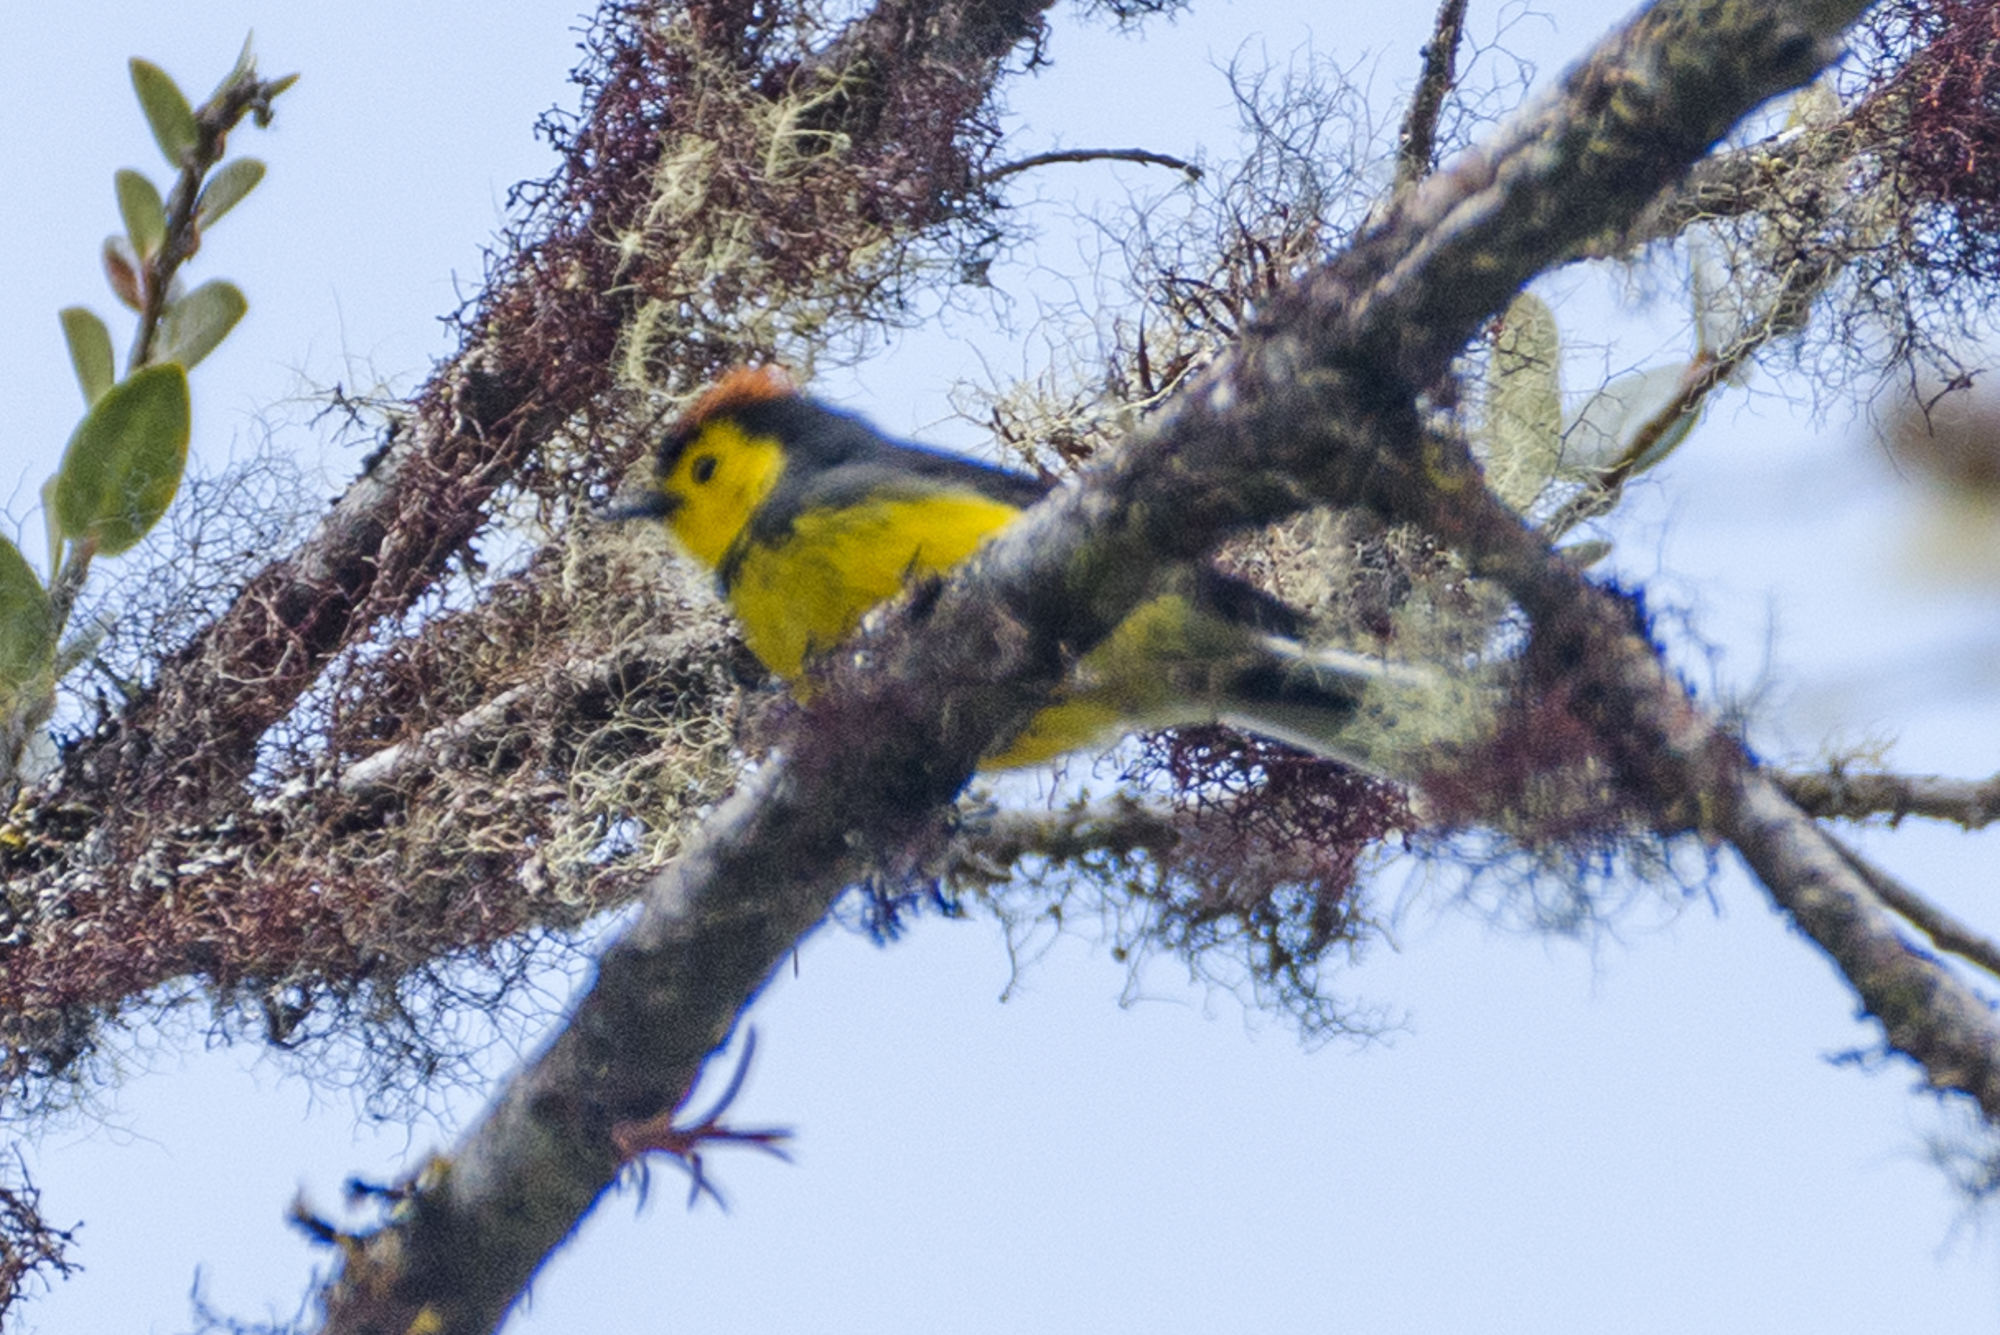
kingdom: Animalia
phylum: Chordata
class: Aves
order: Passeriformes
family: Parulidae
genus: Myioborus
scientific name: Myioborus torquatus
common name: Collared whitestart
